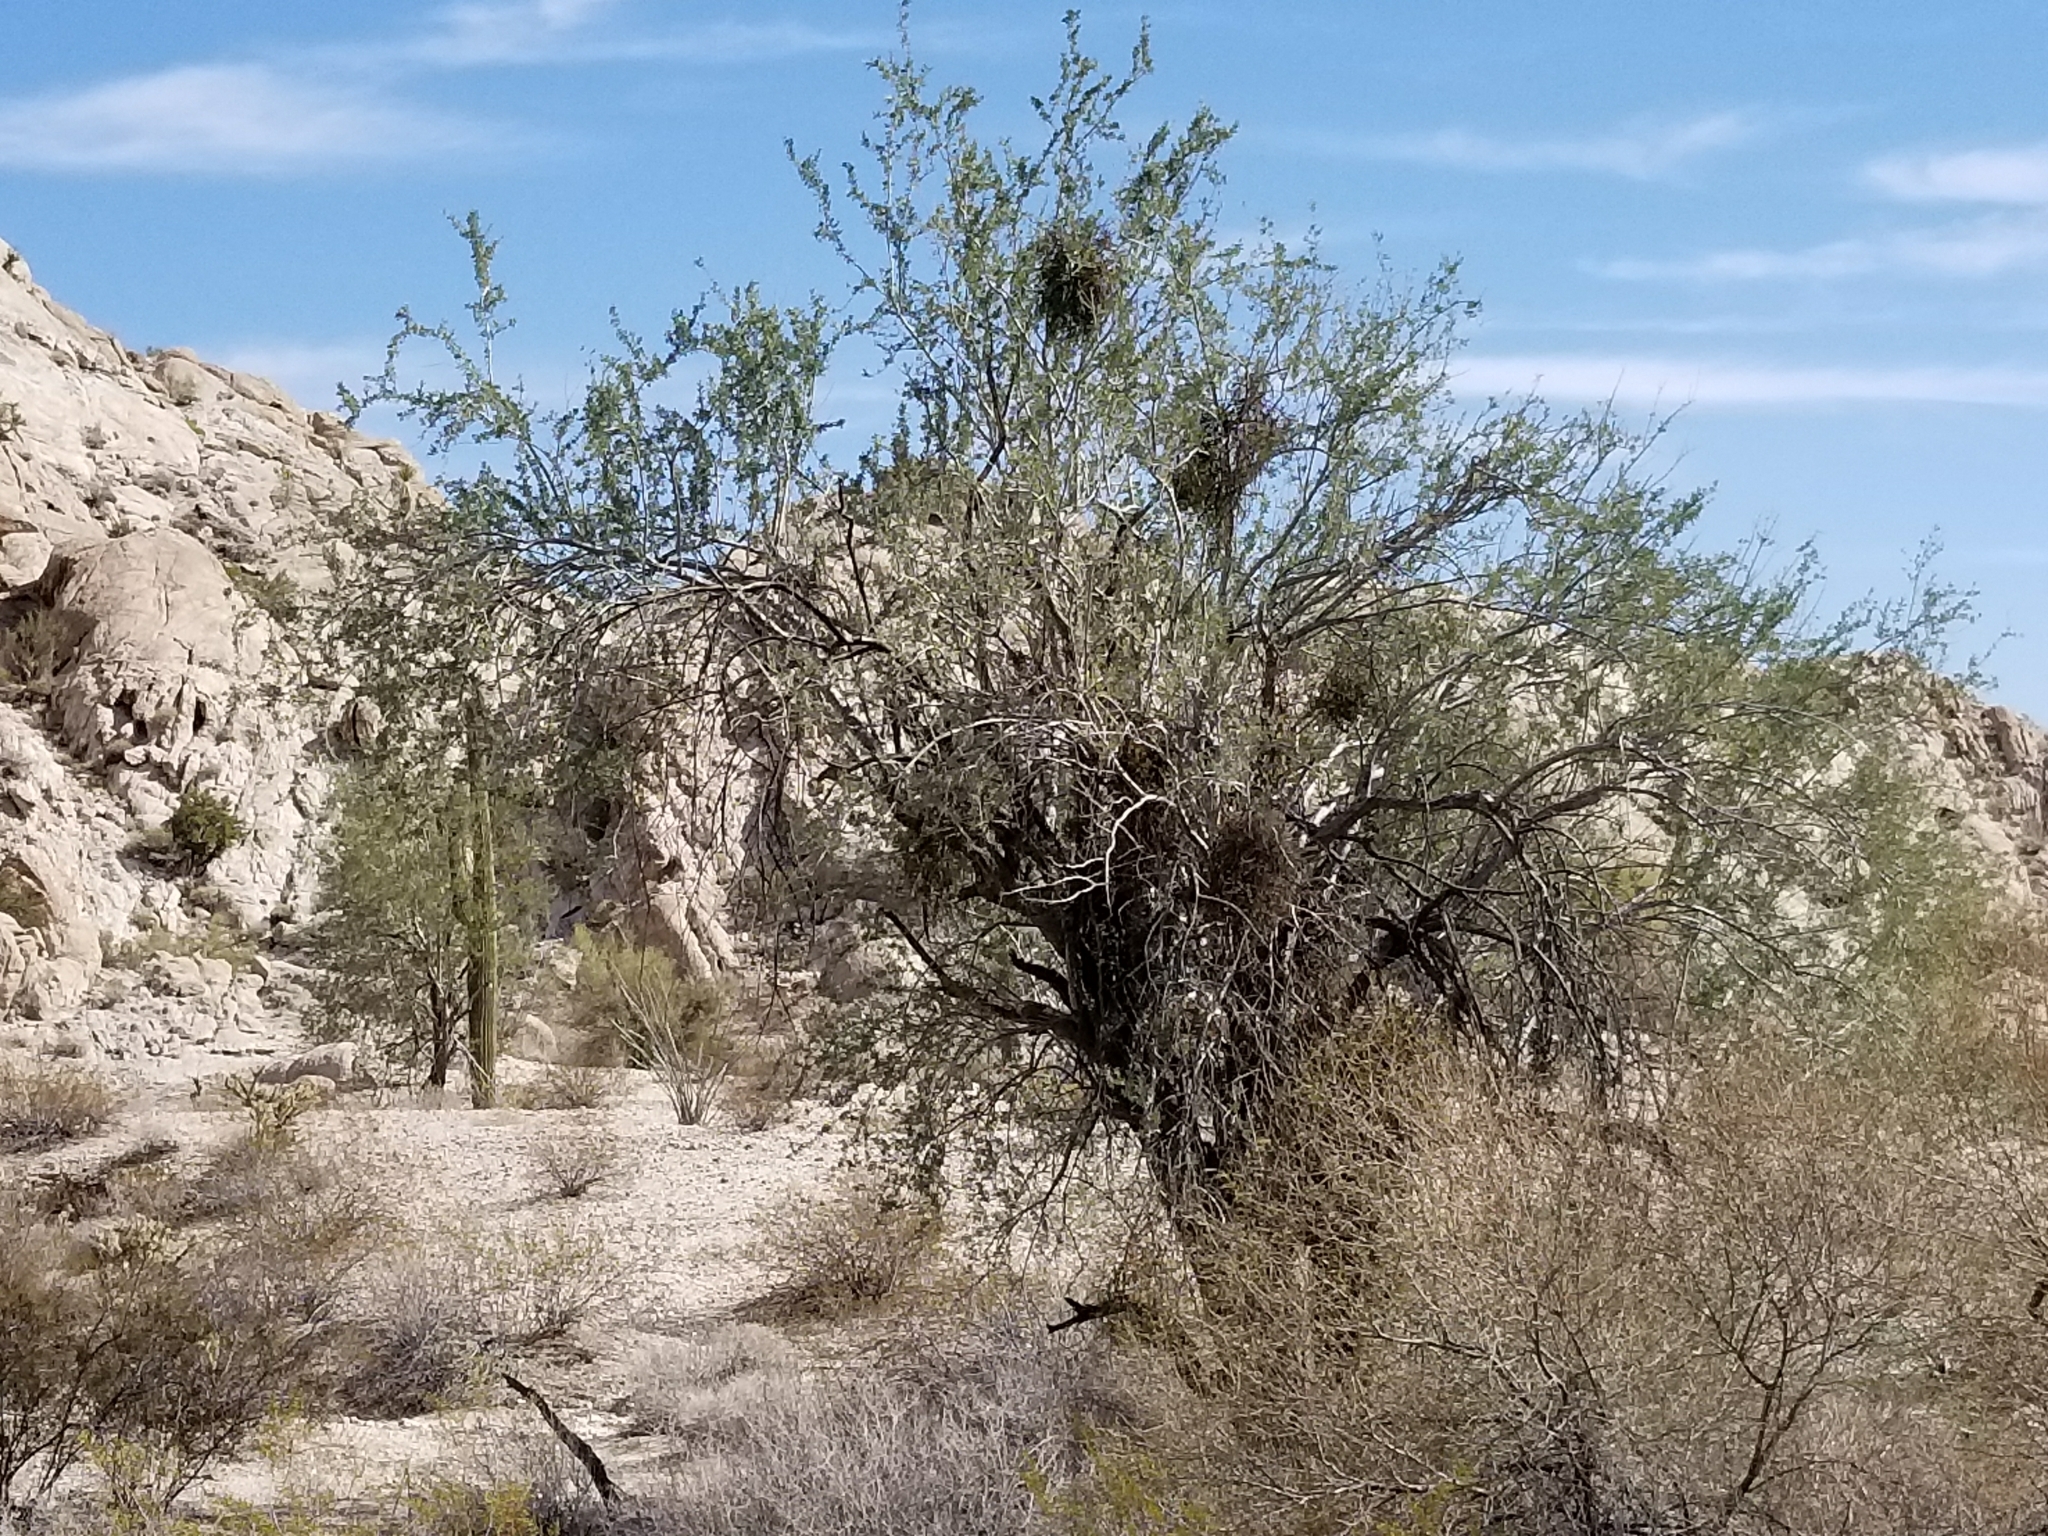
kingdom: Plantae
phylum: Tracheophyta
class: Magnoliopsida
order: Santalales
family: Viscaceae
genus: Phoradendron
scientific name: Phoradendron californicum
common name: Acacia mistletoe
